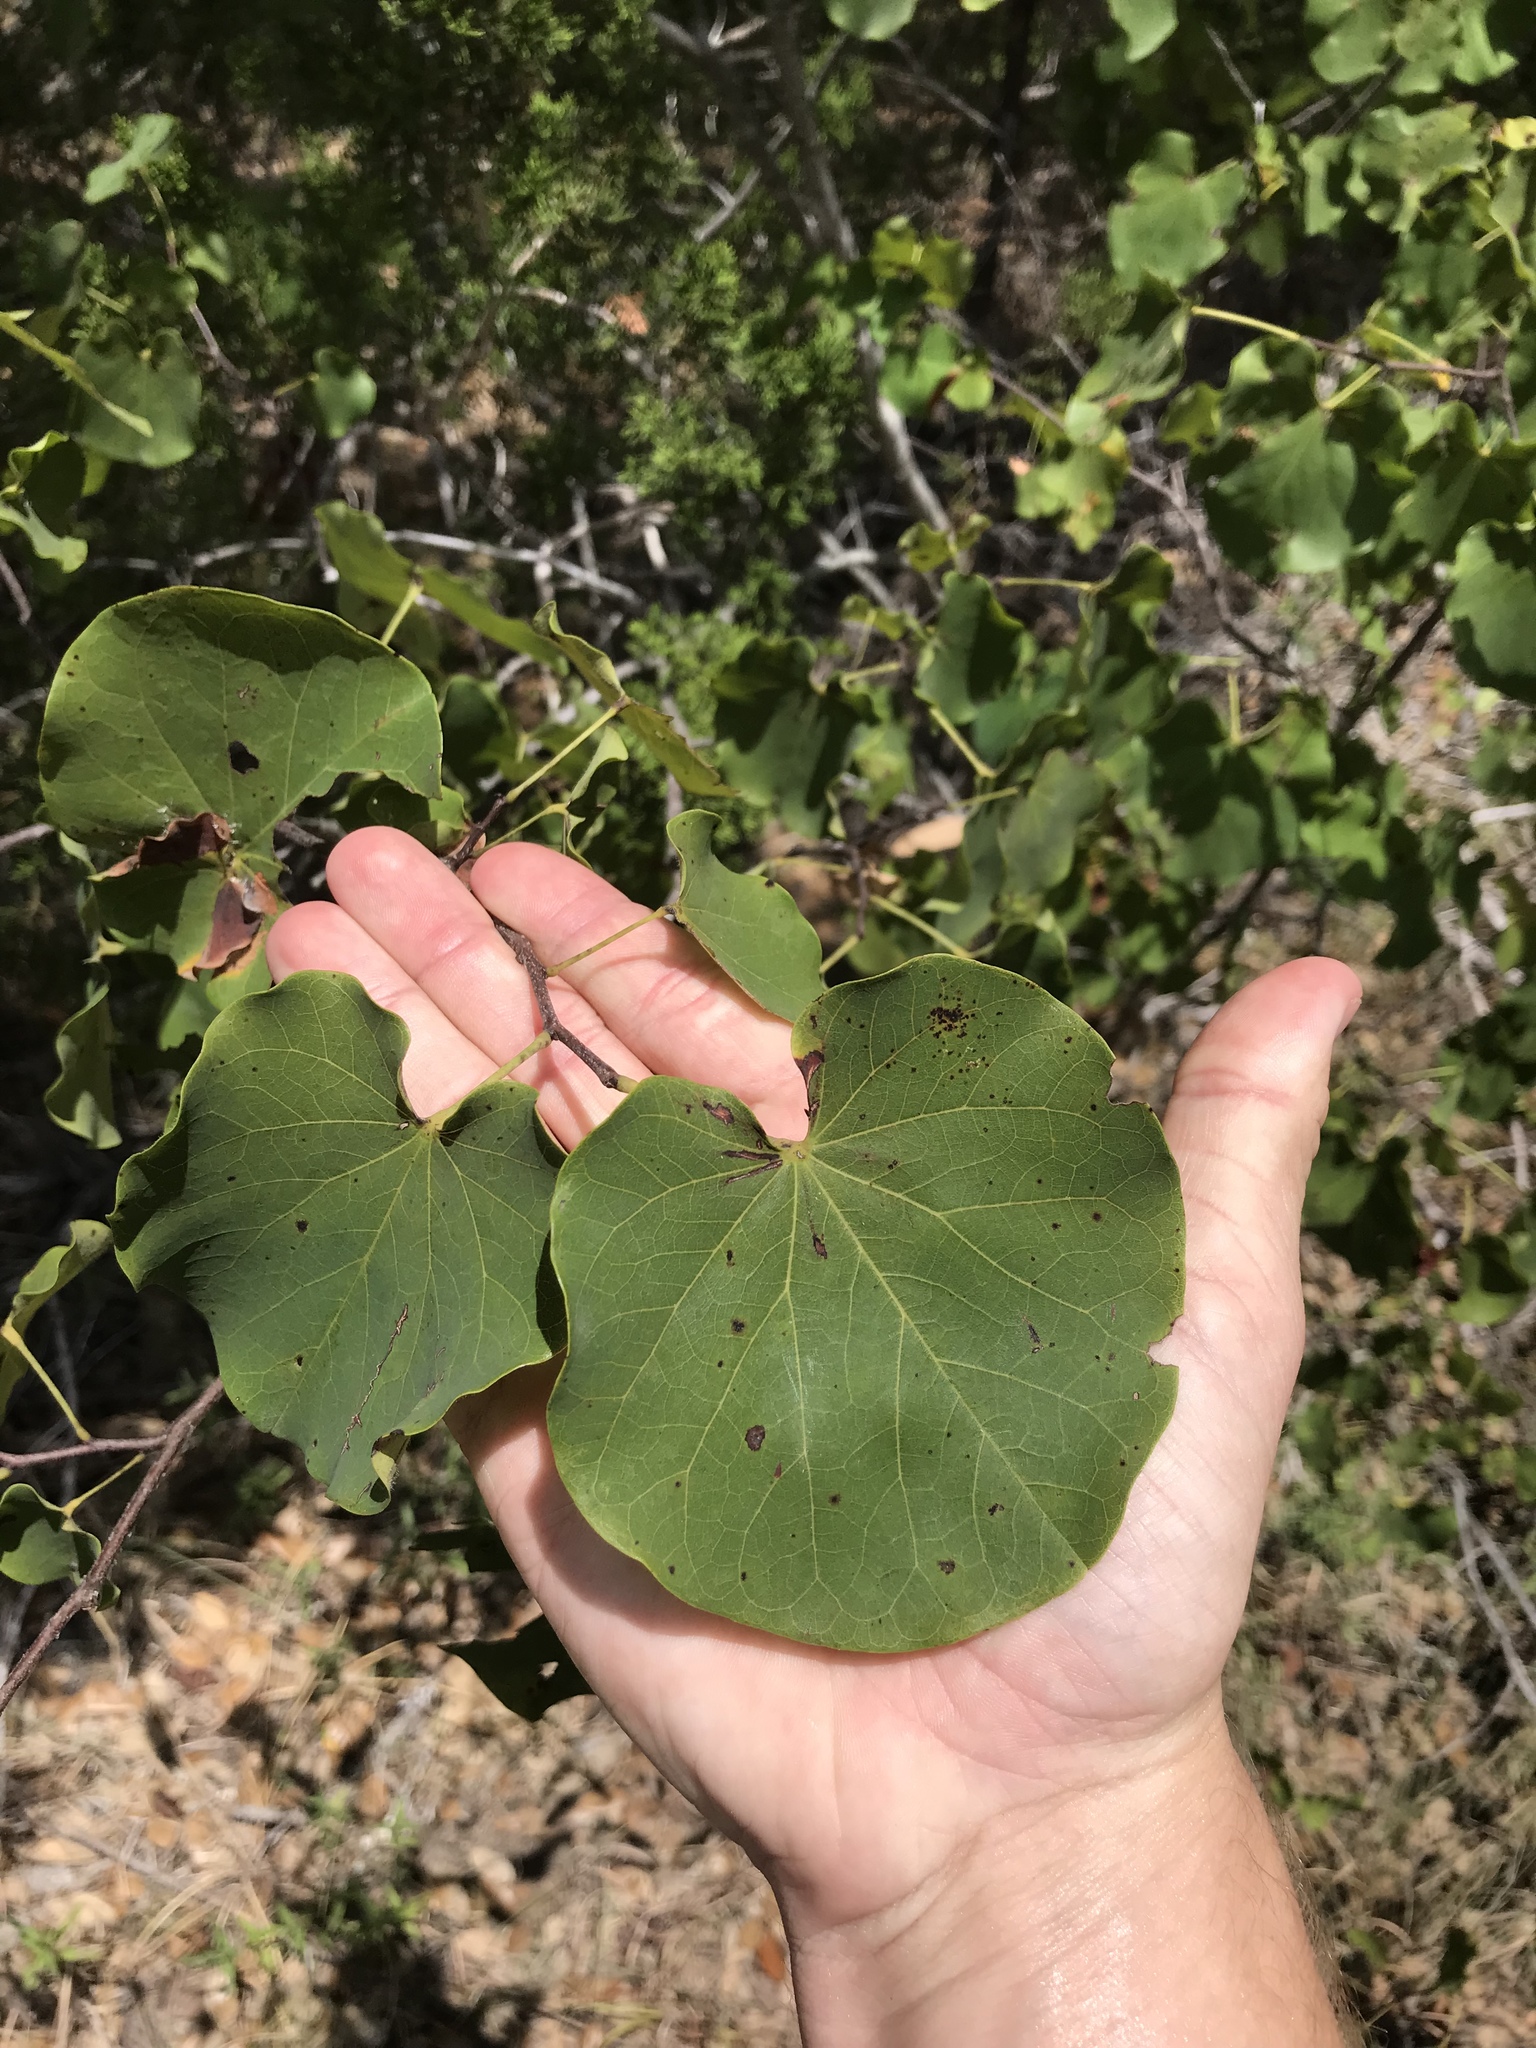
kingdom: Plantae
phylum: Tracheophyta
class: Magnoliopsida
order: Fabales
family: Fabaceae
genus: Cercis
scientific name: Cercis canadensis
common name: Eastern redbud
